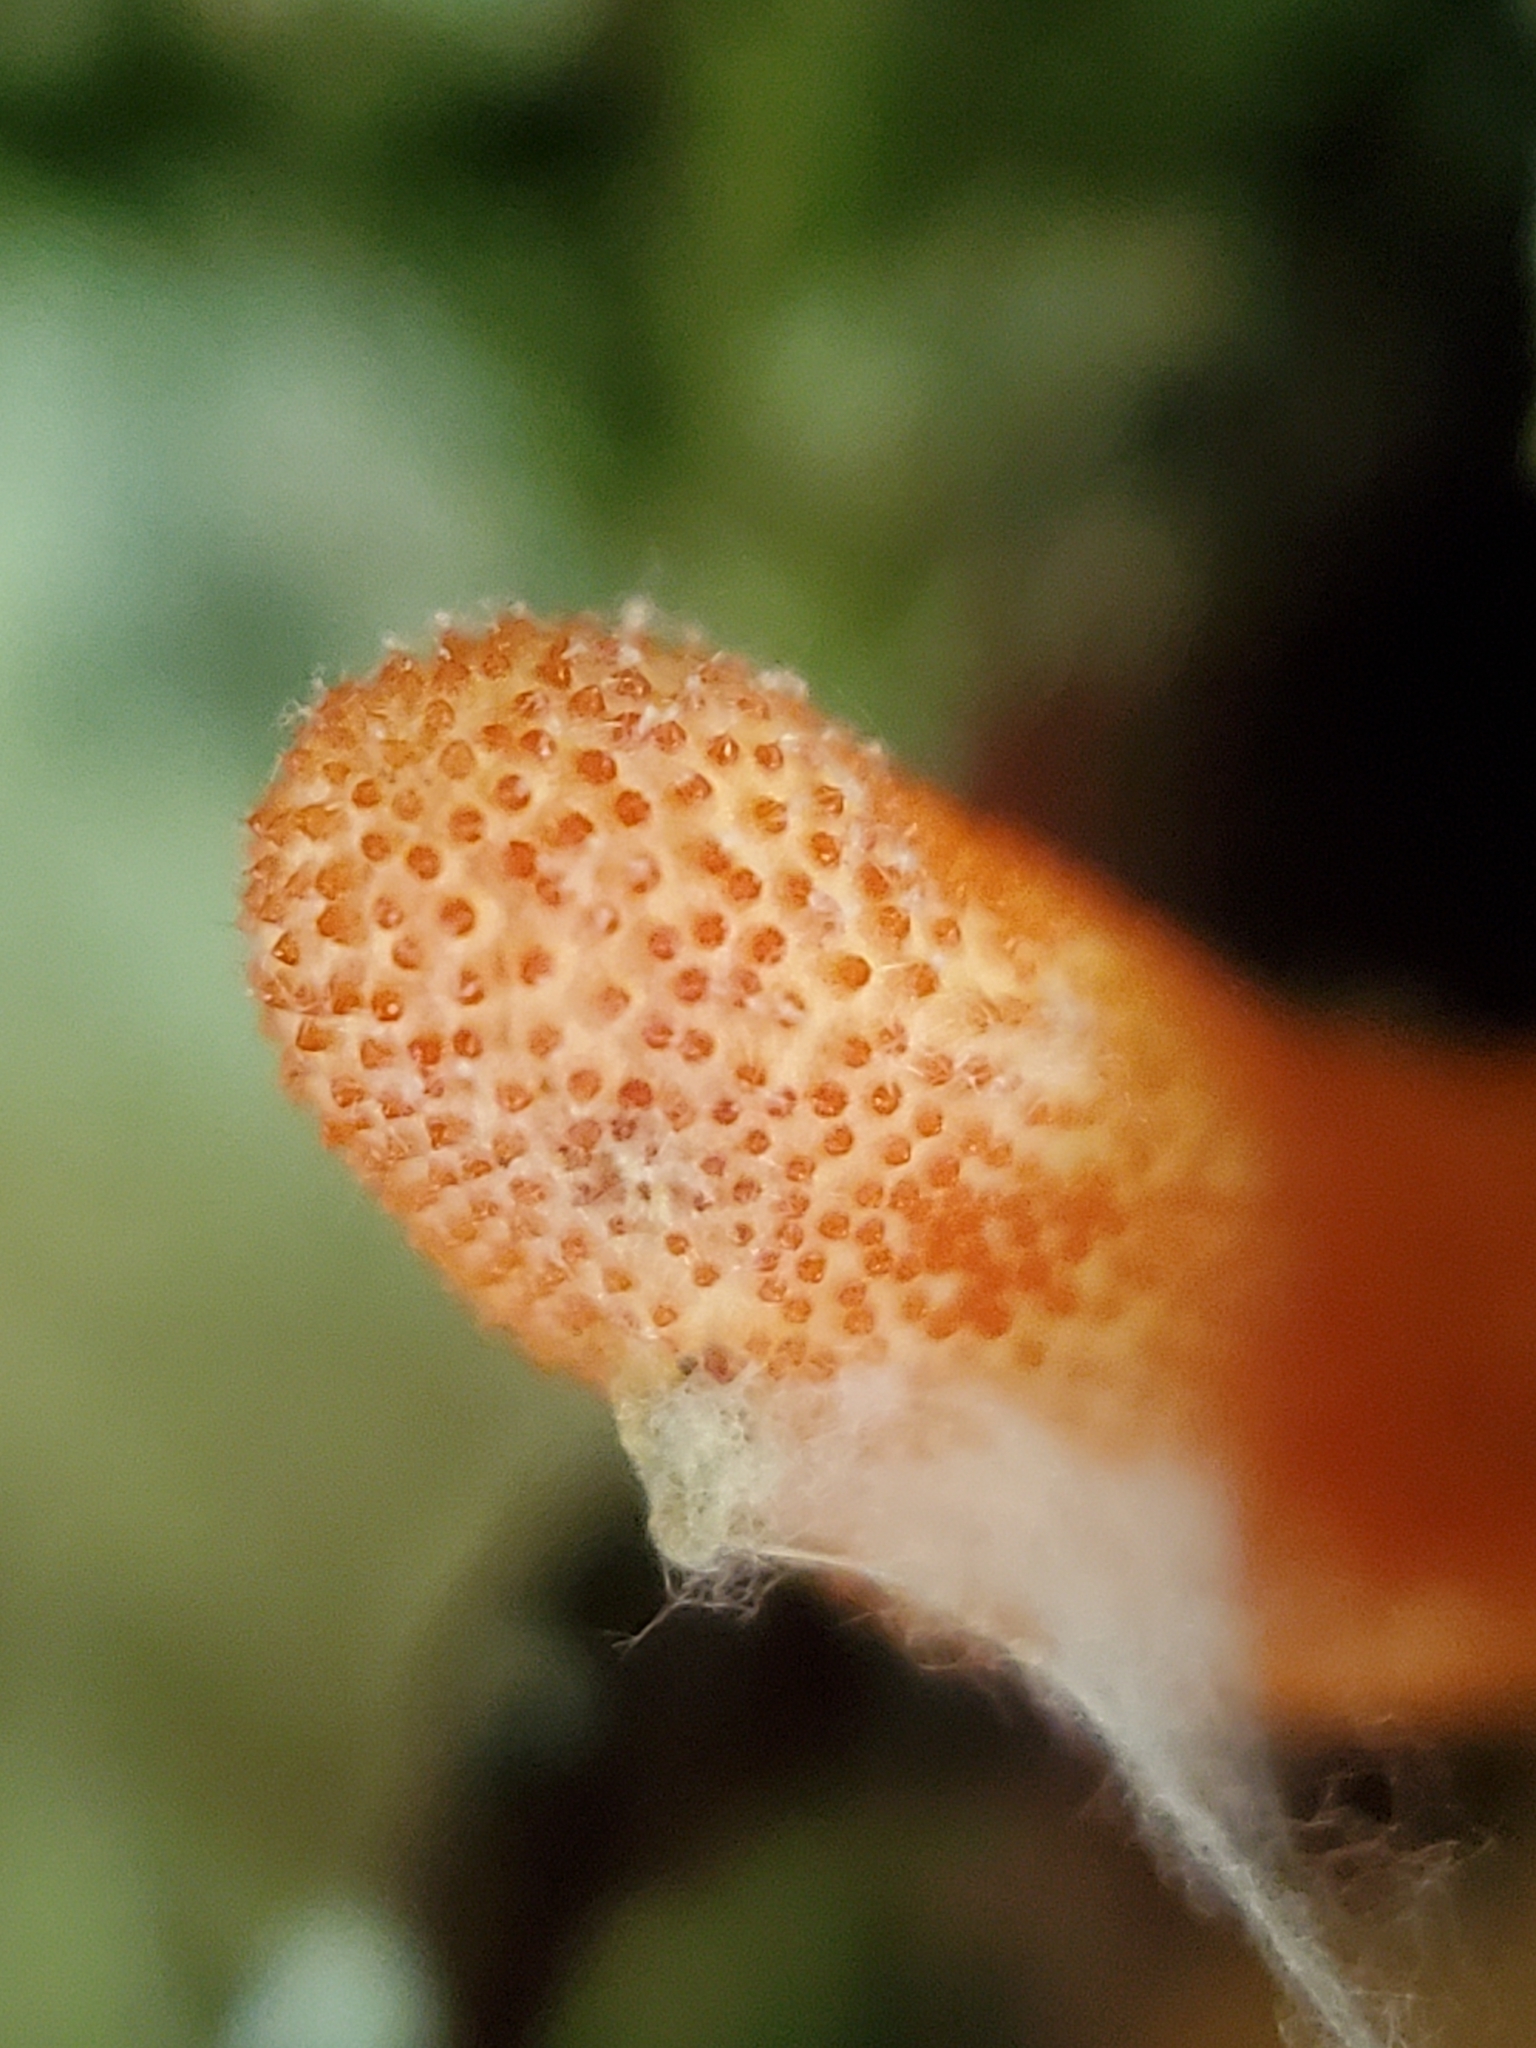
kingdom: Fungi
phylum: Ascomycota
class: Sordariomycetes
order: Hypocreales
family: Cordycipitaceae
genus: Cordyceps
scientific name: Cordyceps militaris
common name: Scarlet caterpillar fungus
